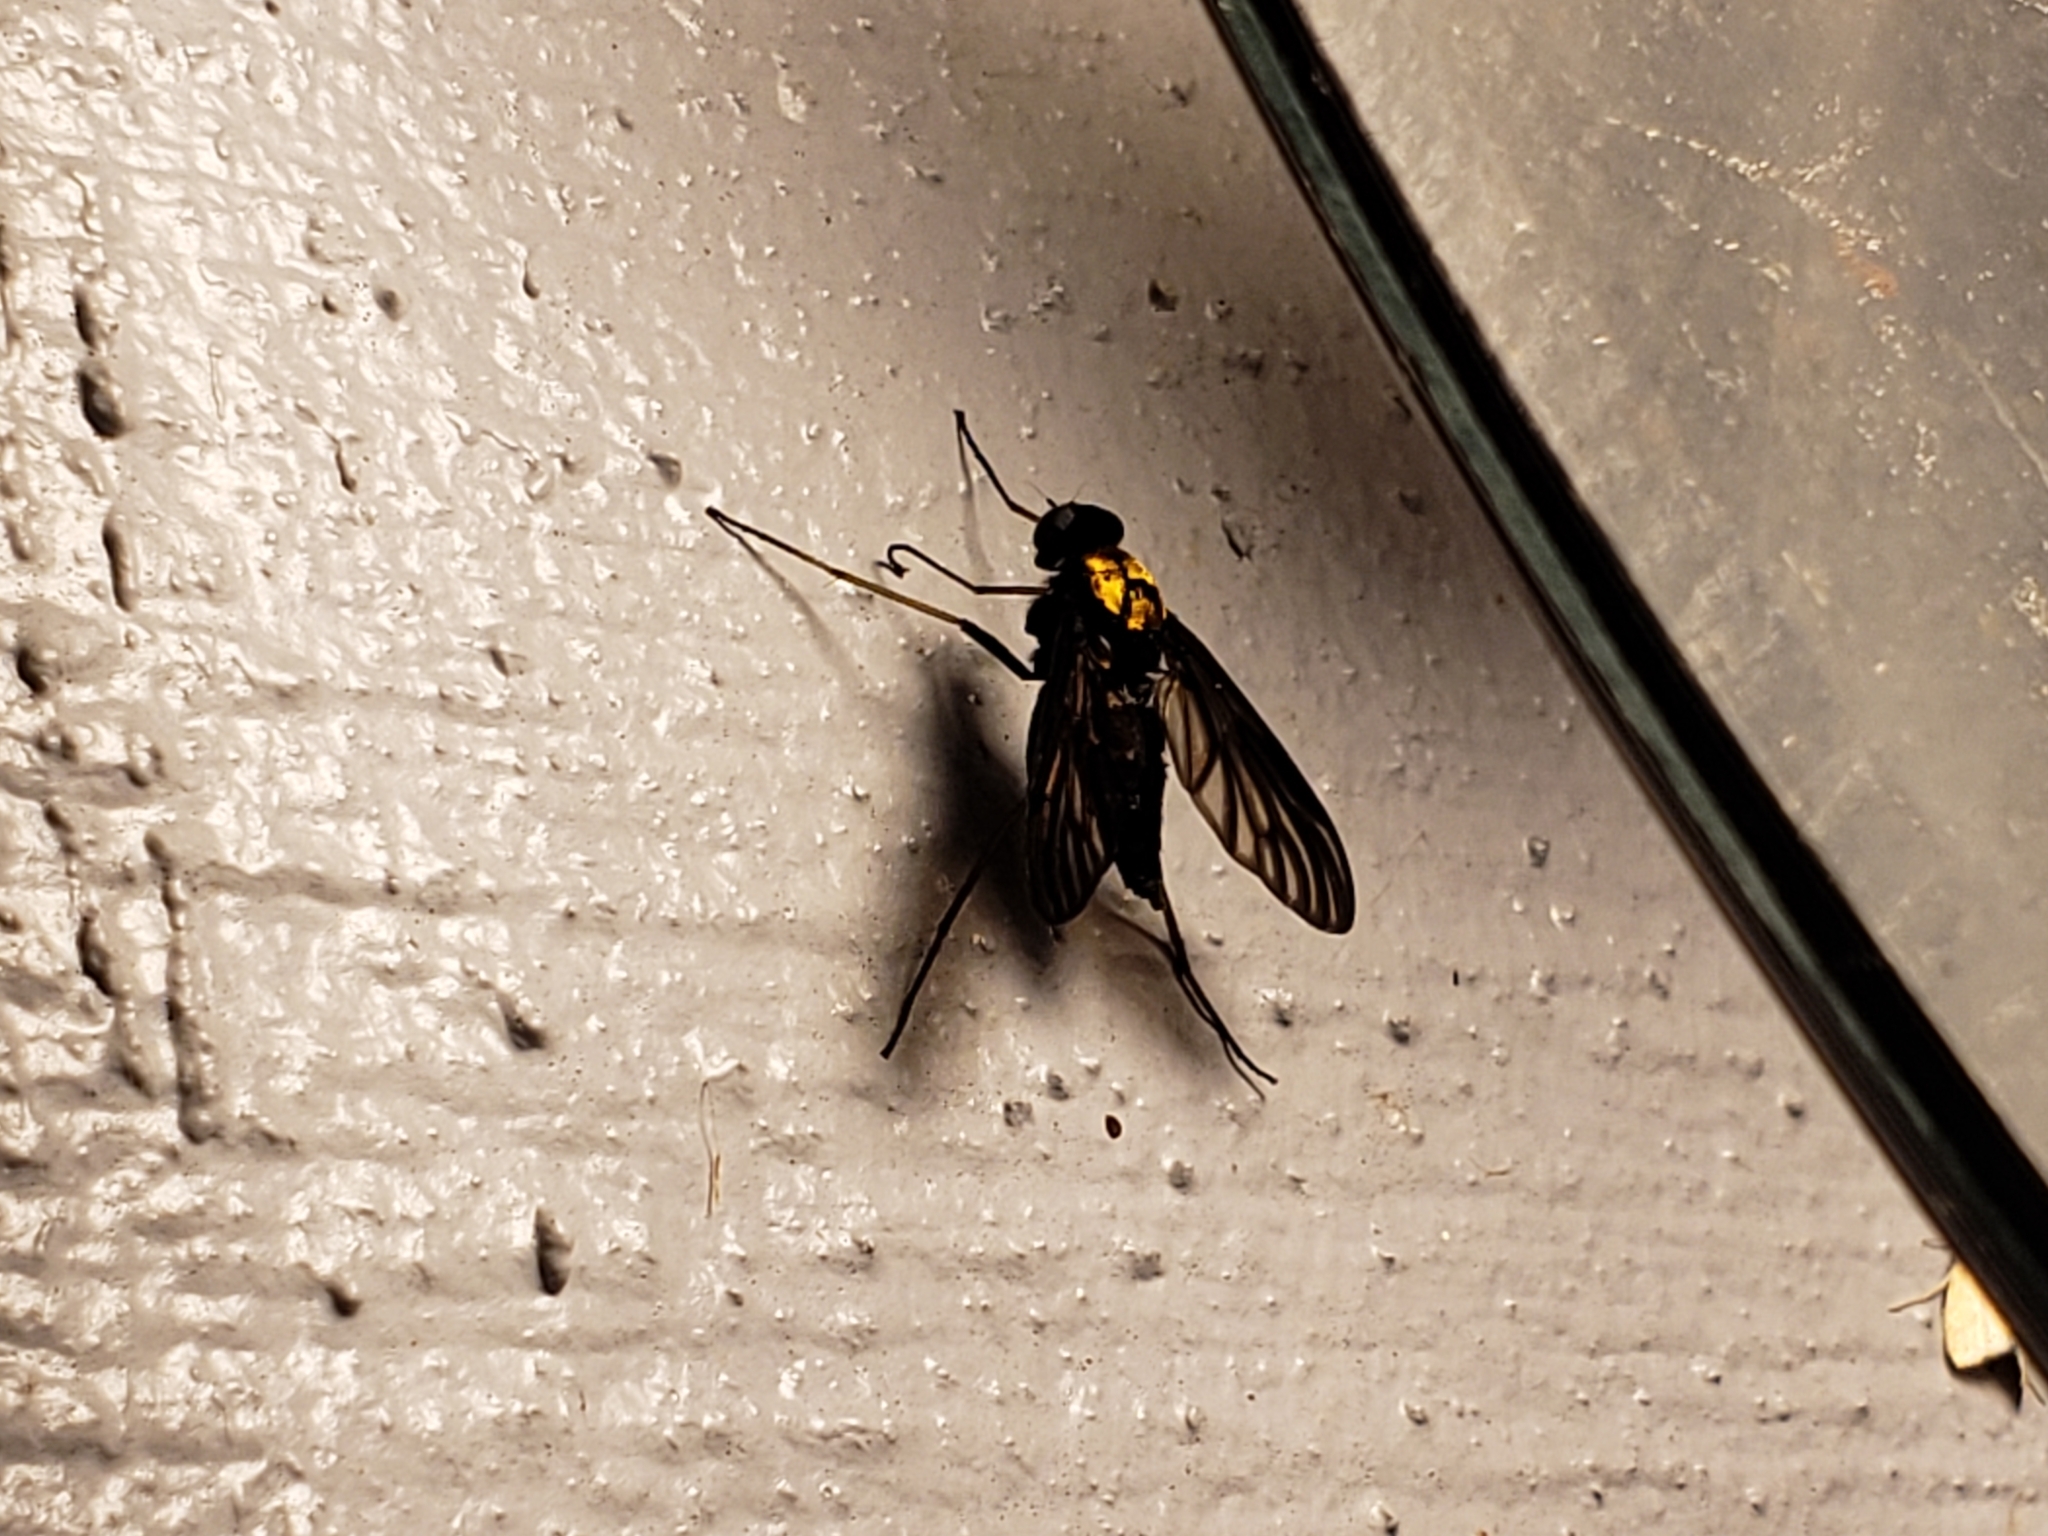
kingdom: Animalia
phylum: Arthropoda
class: Insecta
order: Diptera
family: Rhagionidae
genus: Chrysopilus
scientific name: Chrysopilus thoracicus
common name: Golden-backed snipe fly
